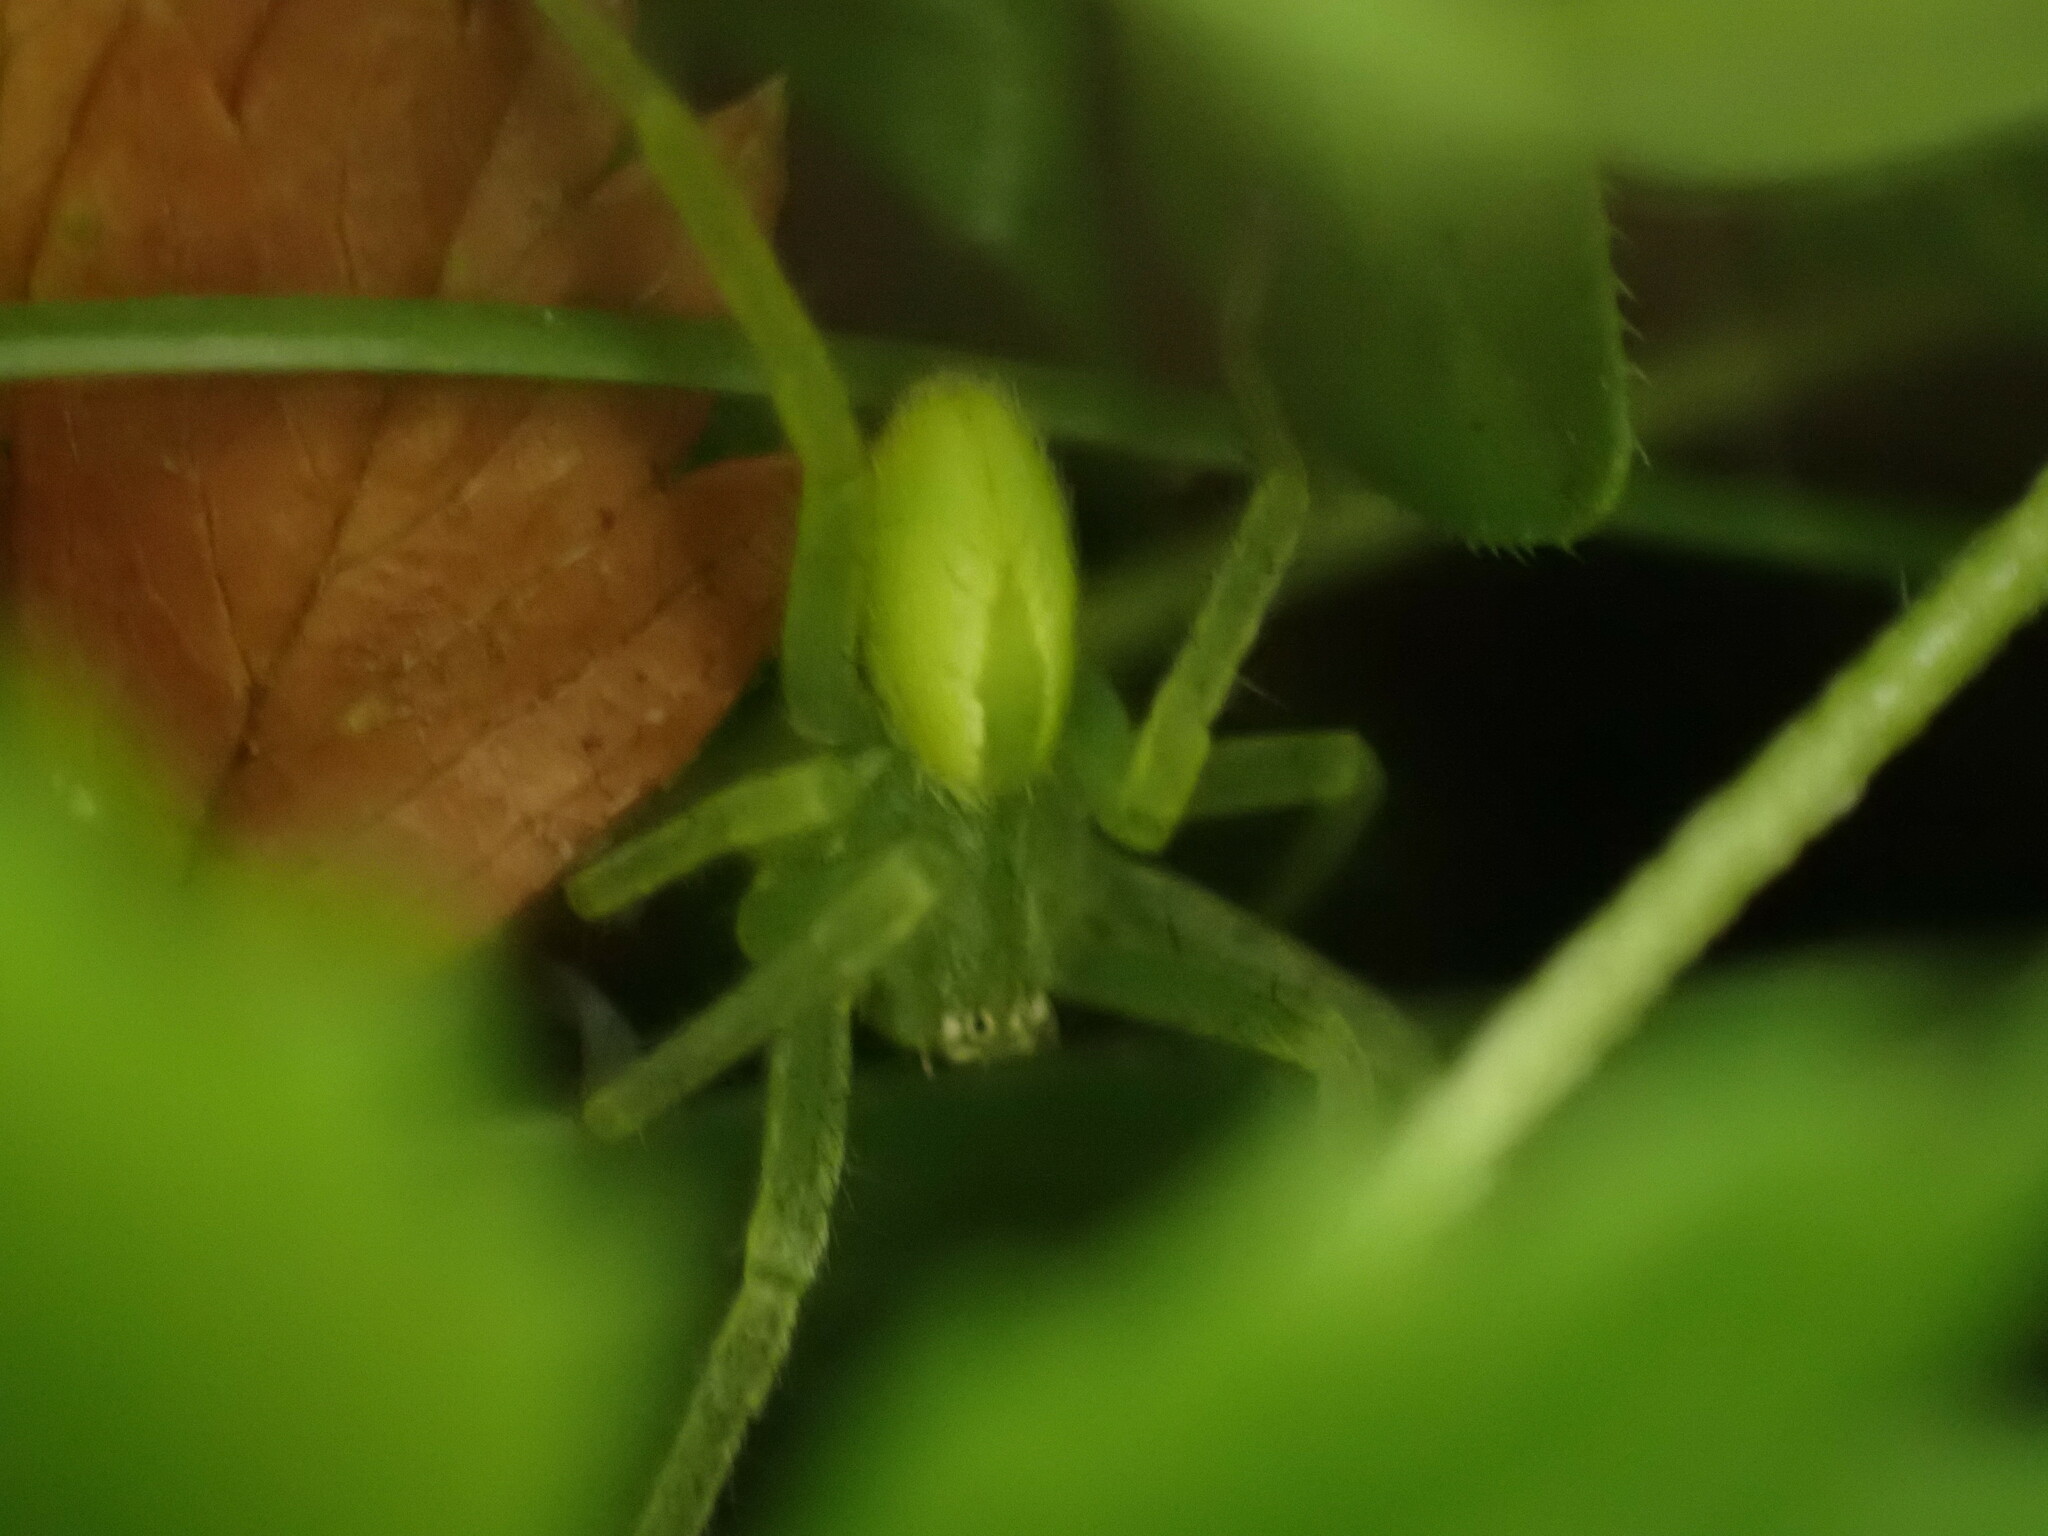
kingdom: Animalia
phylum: Arthropoda
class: Arachnida
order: Araneae
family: Sparassidae
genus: Micrommata
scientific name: Micrommata virescens
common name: Green spider
